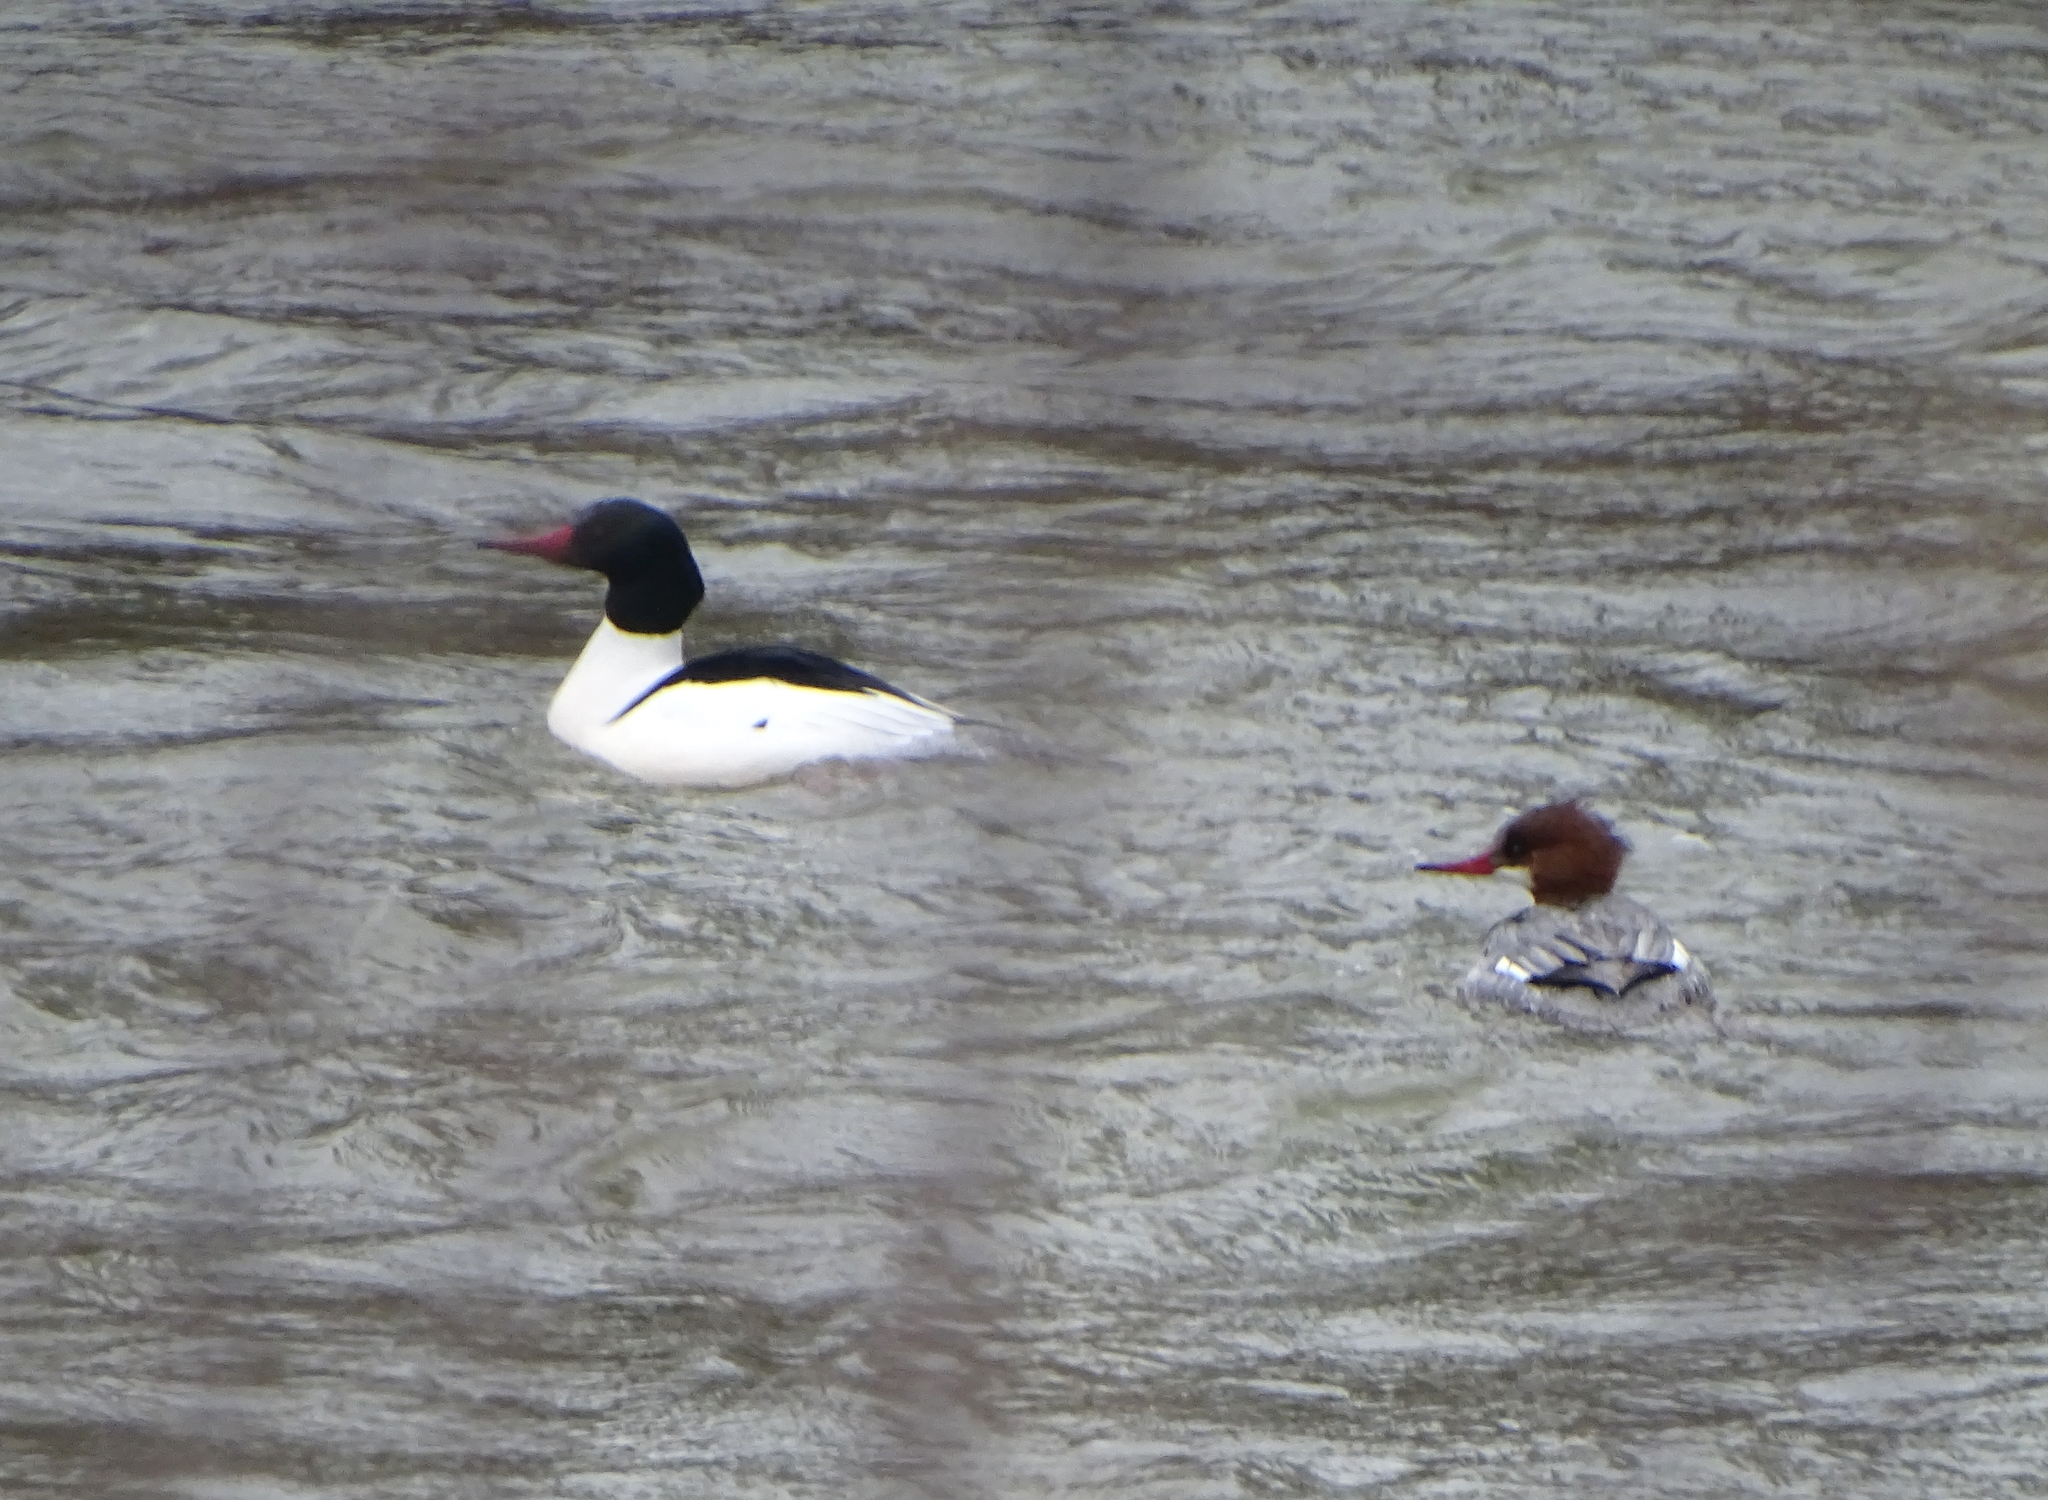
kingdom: Animalia
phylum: Chordata
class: Aves
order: Anseriformes
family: Anatidae
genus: Mergus
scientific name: Mergus merganser
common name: Common merganser
